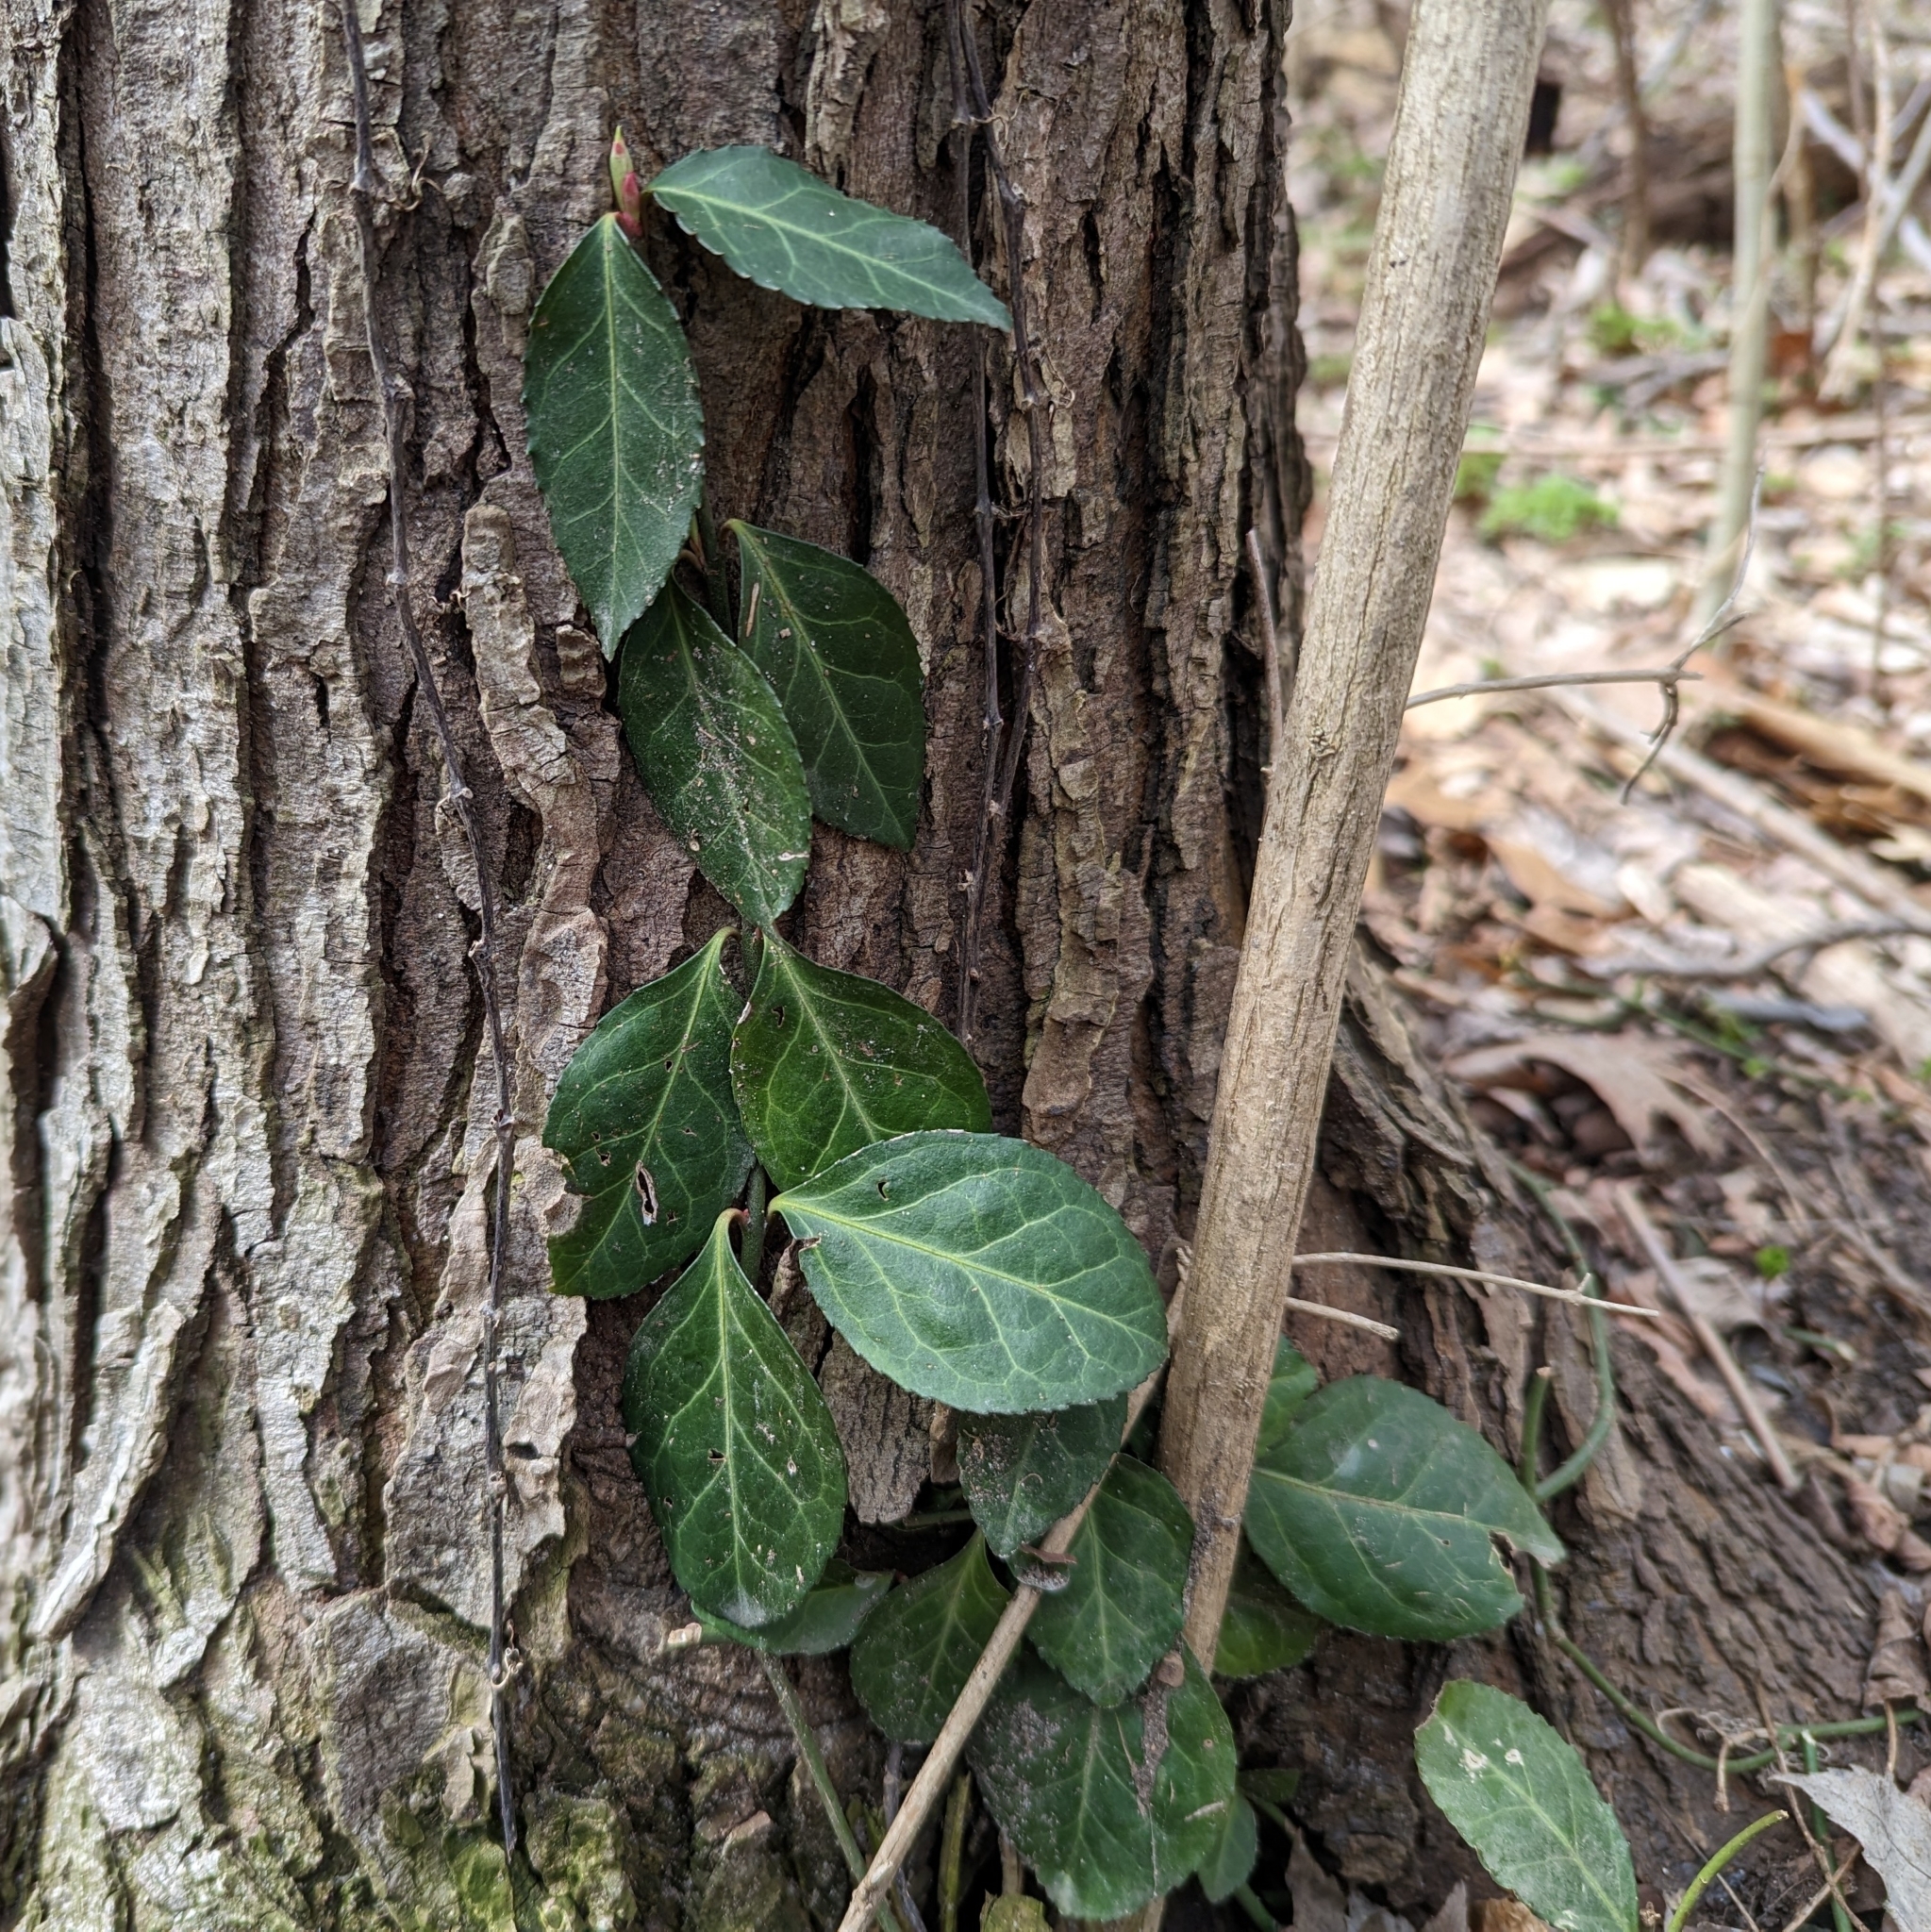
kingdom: Plantae
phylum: Tracheophyta
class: Magnoliopsida
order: Celastrales
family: Celastraceae
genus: Euonymus
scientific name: Euonymus fortunei
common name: Climbing euonymus
